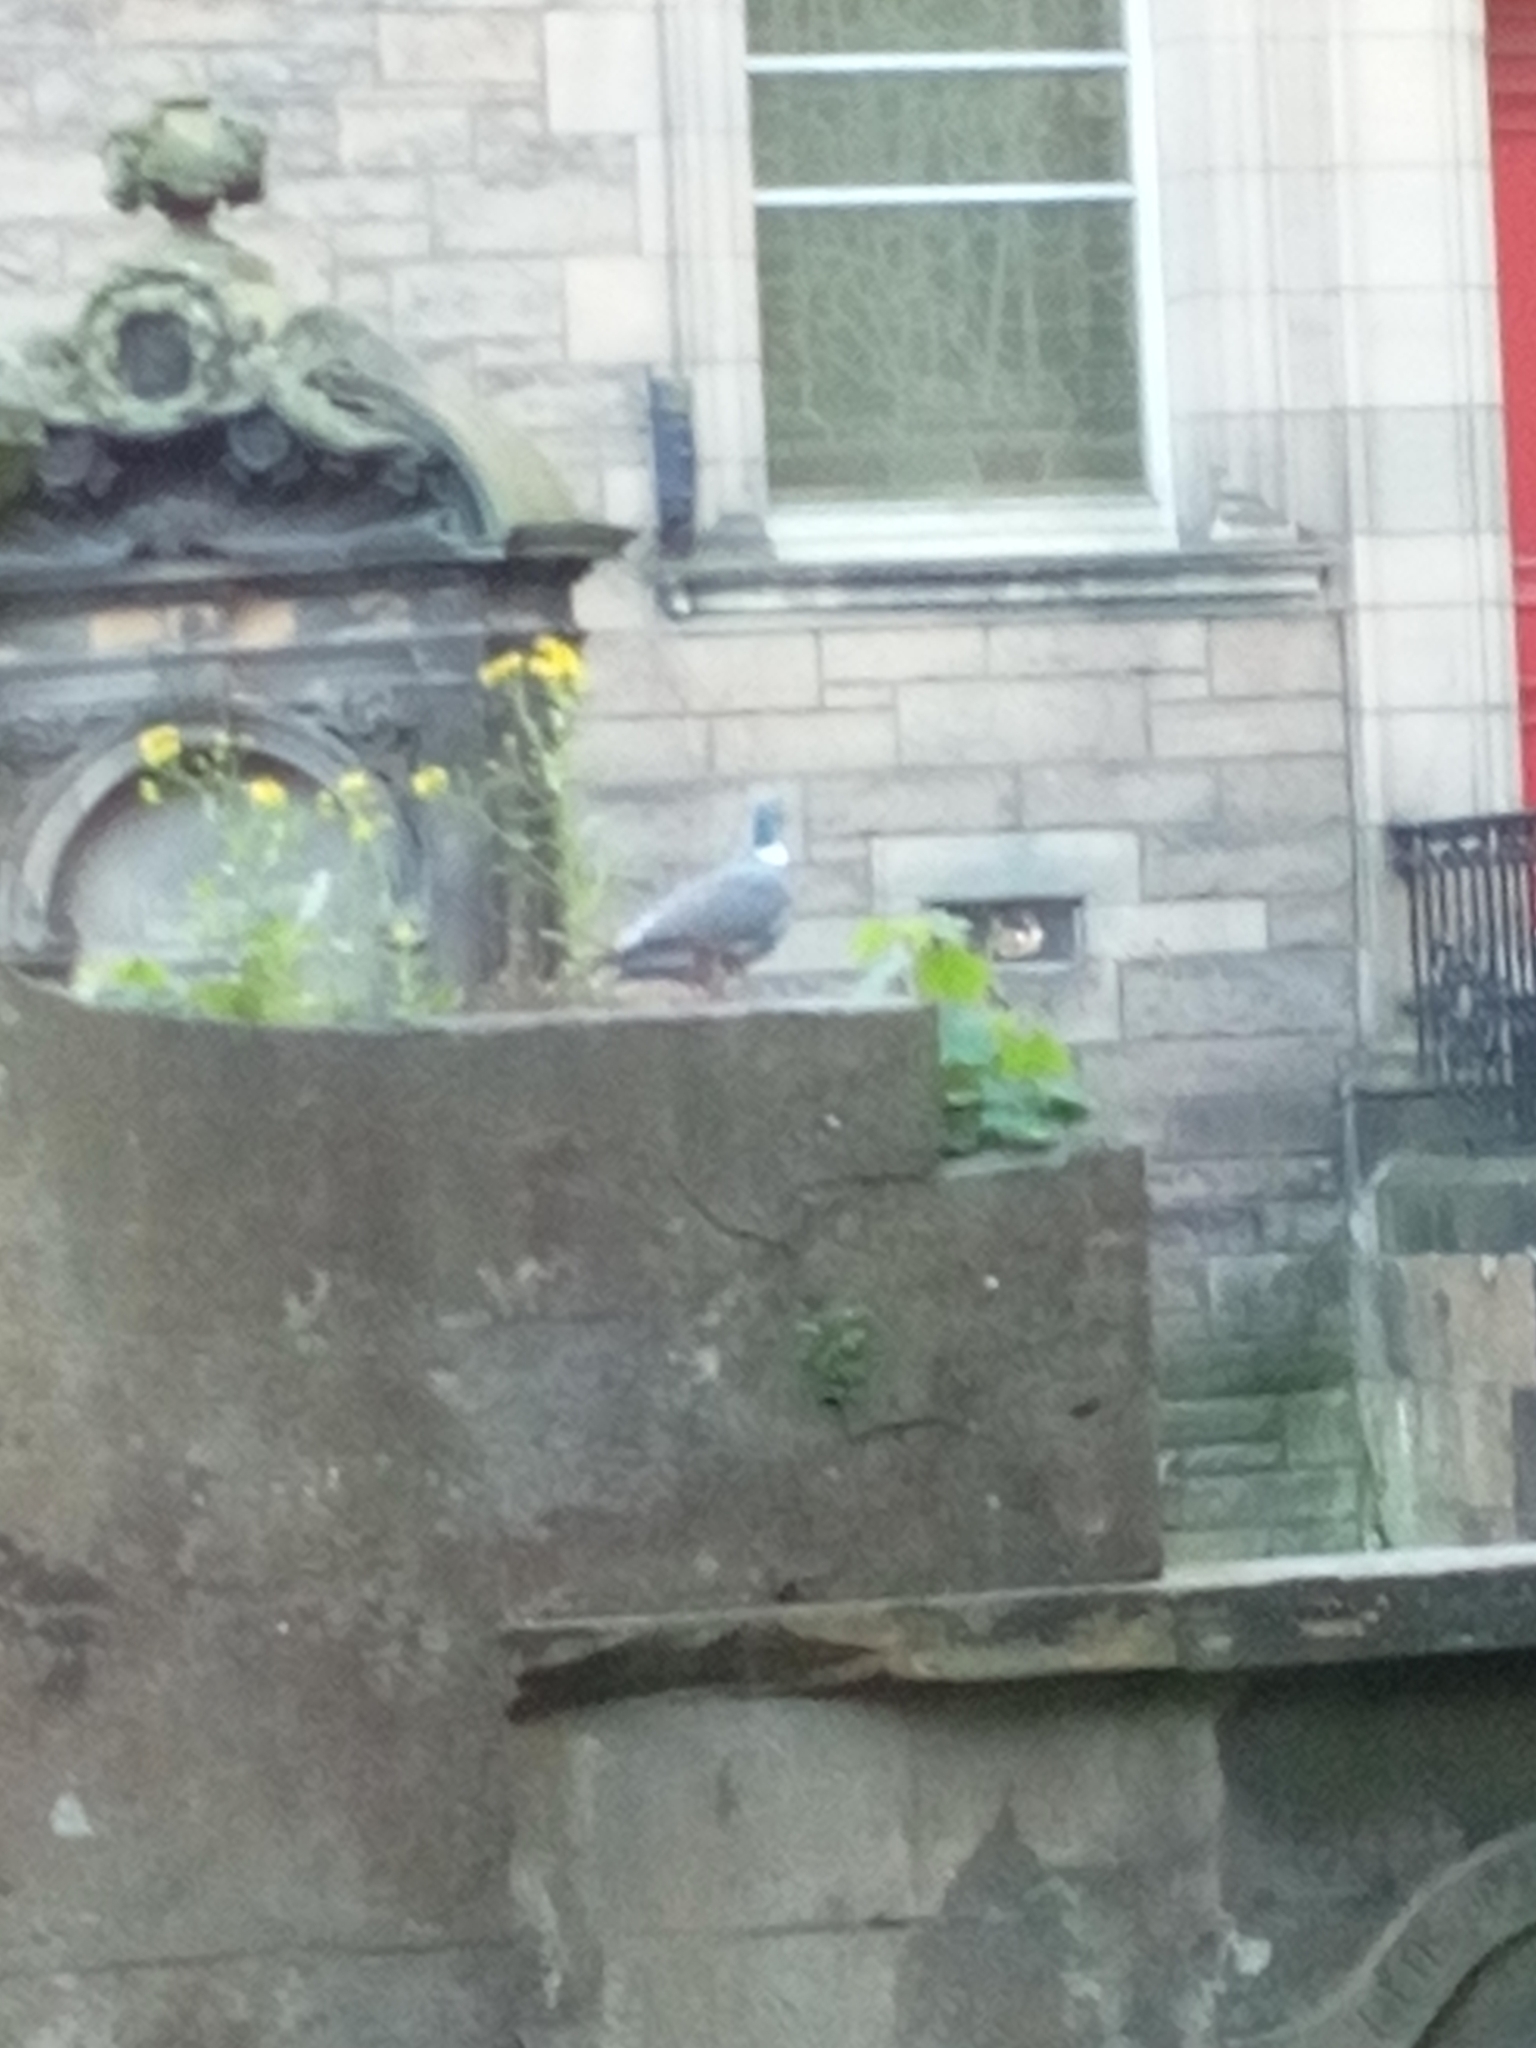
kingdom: Animalia
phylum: Chordata
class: Aves
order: Columbiformes
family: Columbidae
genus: Columba
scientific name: Columba palumbus
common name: Common wood pigeon
